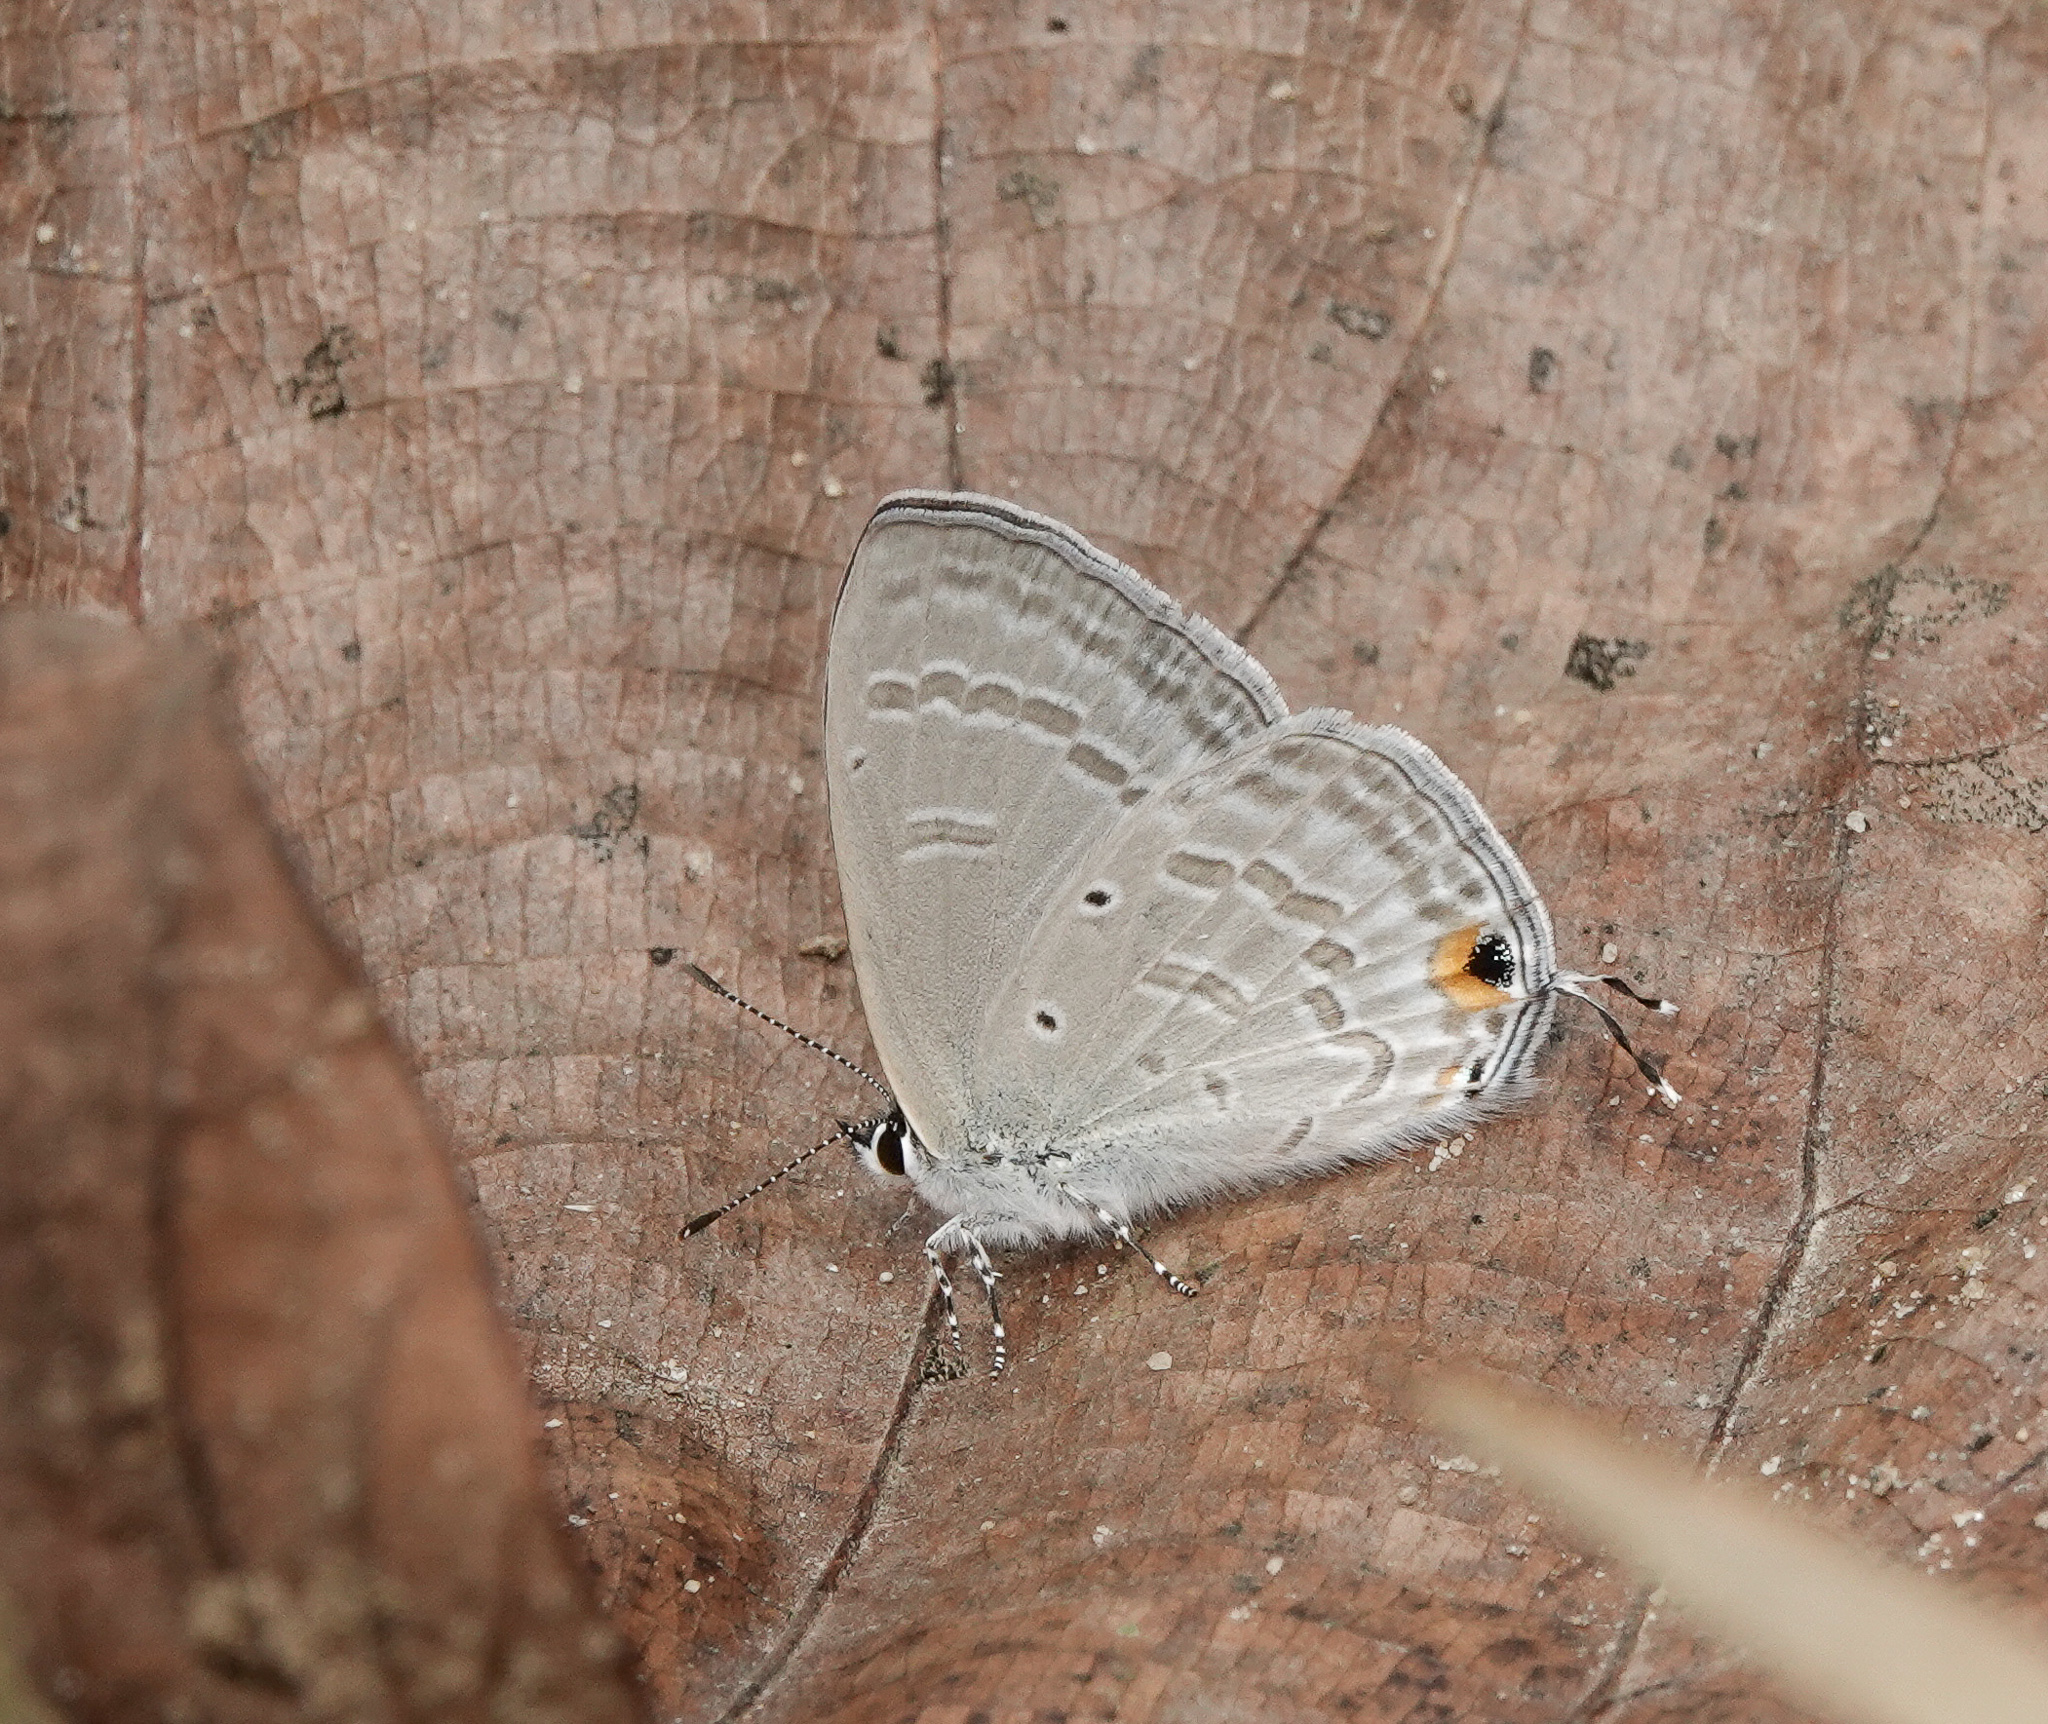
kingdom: Animalia
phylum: Arthropoda
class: Insecta
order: Lepidoptera
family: Lycaenidae
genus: Catochrysops
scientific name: Catochrysops strabo
